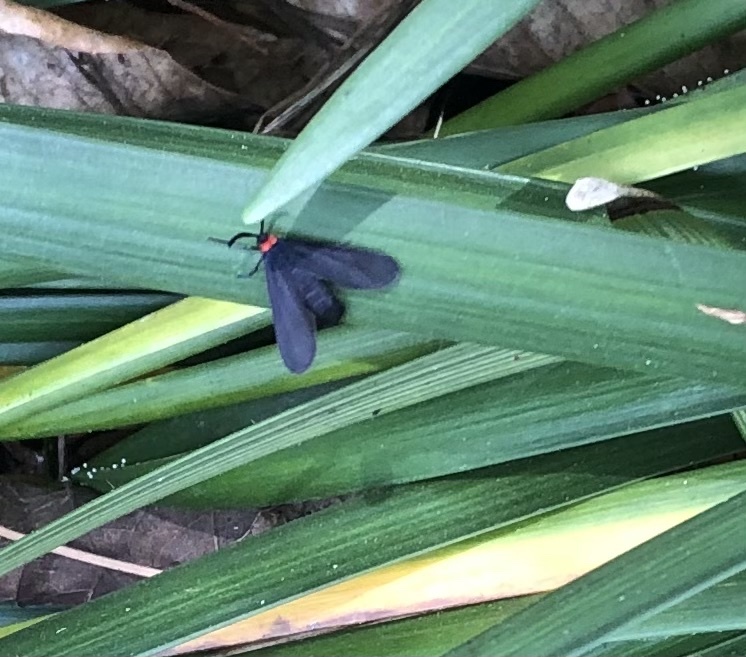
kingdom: Animalia
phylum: Arthropoda
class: Insecta
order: Lepidoptera
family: Zygaenidae
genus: Harrisina
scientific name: Harrisina americana
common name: Grapeleaf skeletonizer moth
